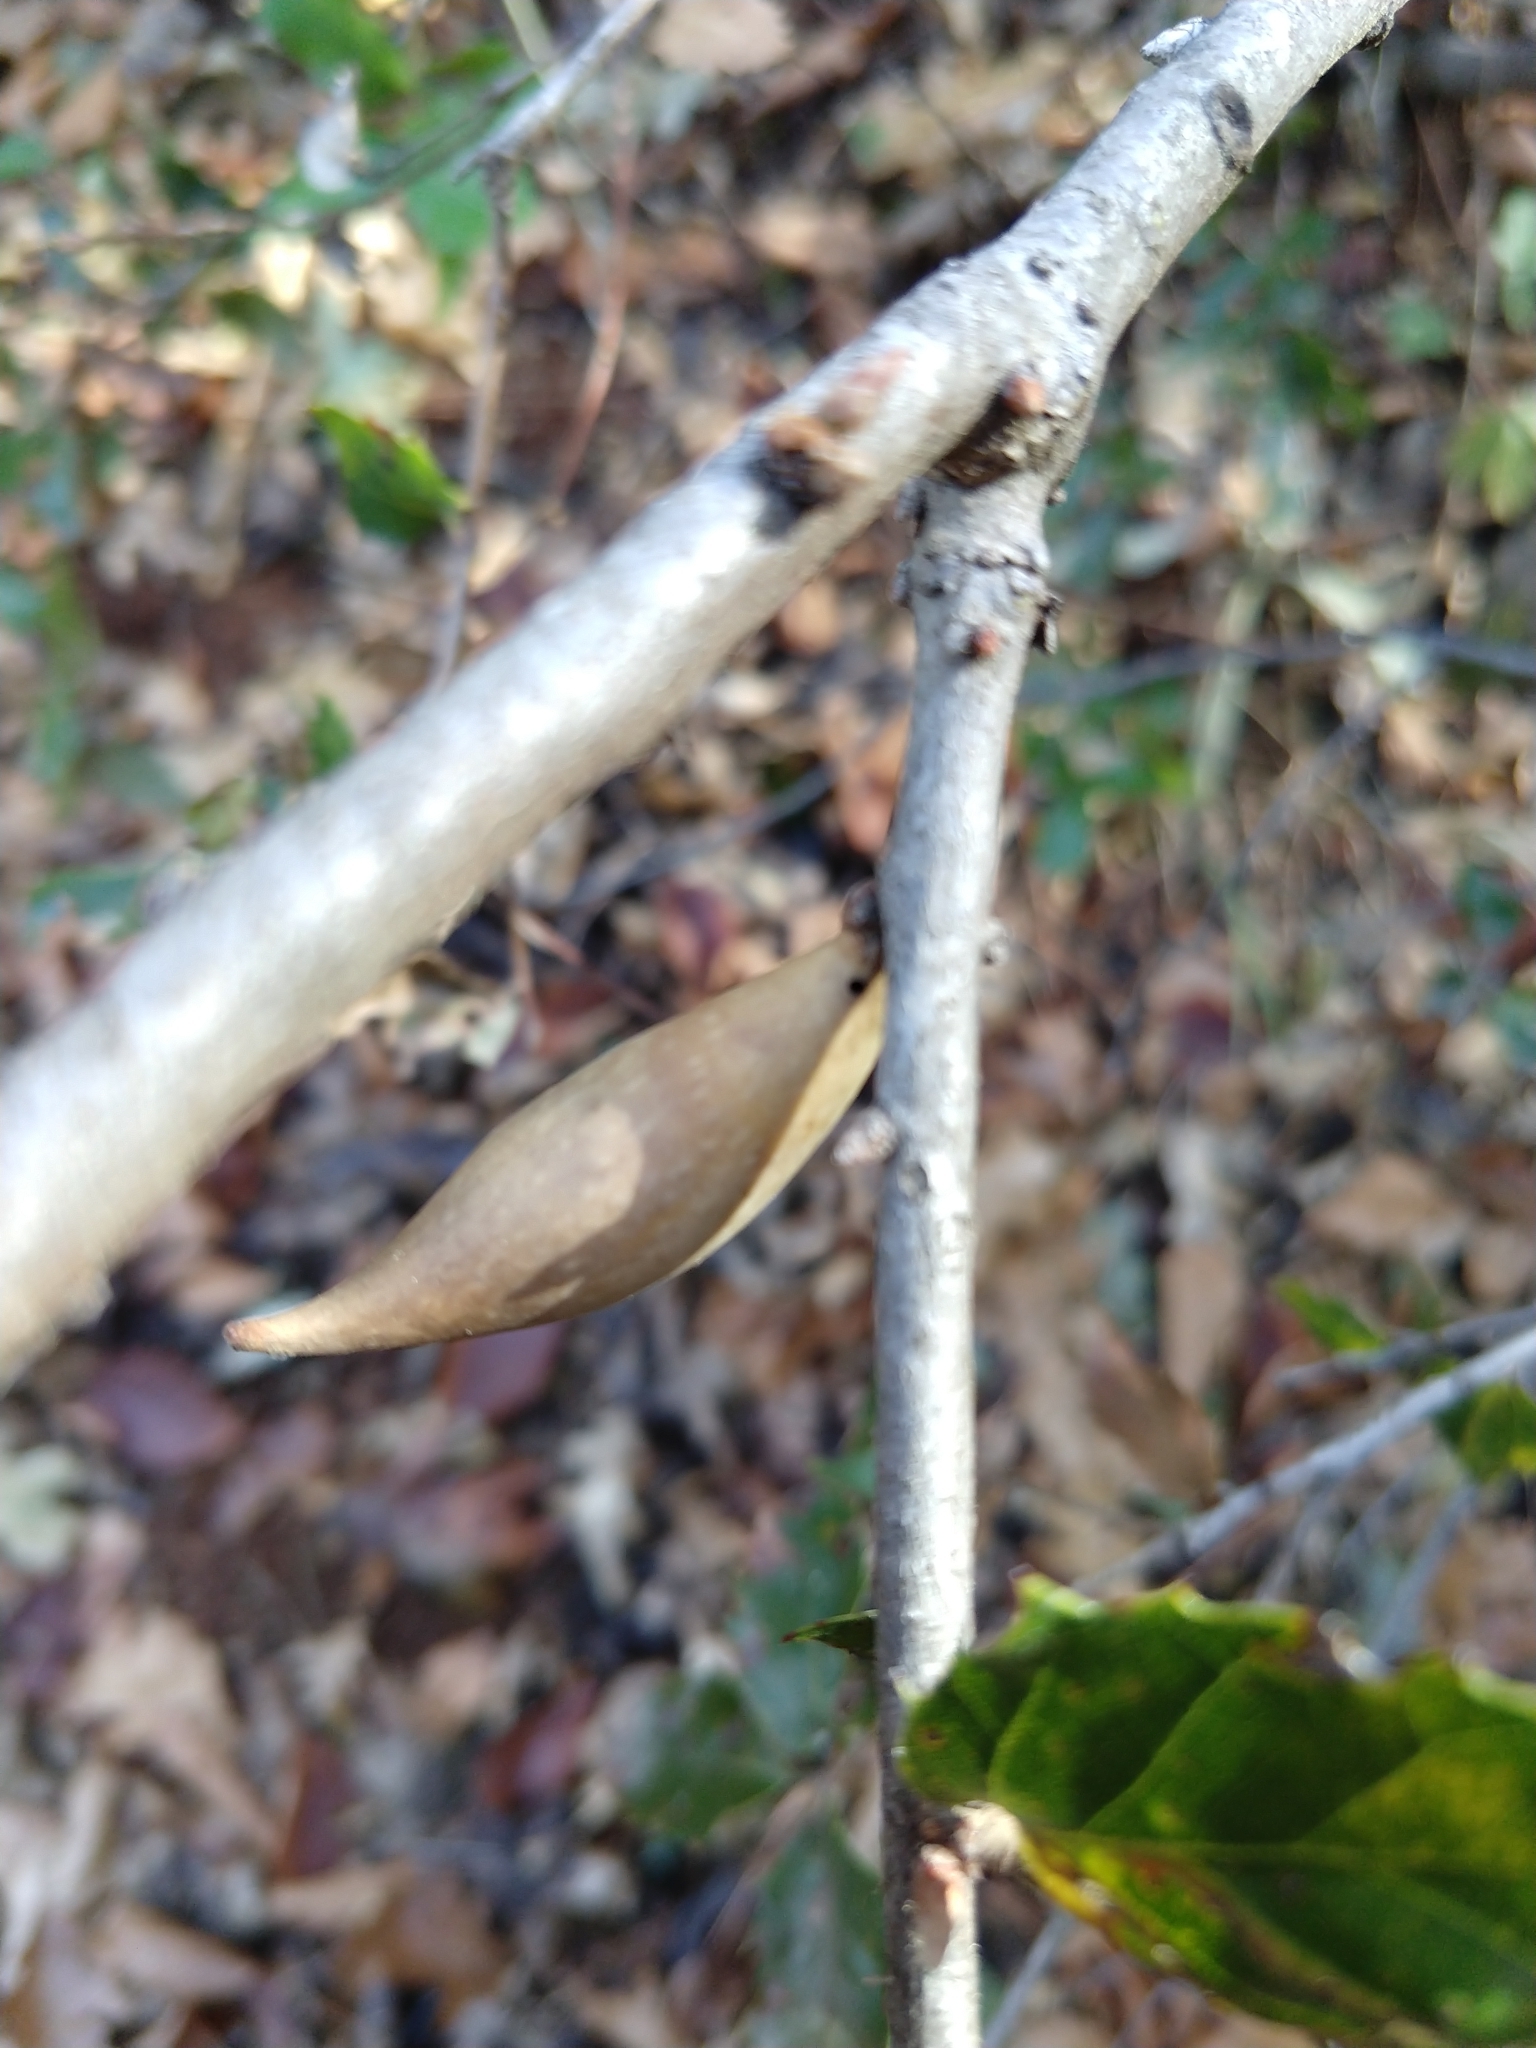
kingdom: Animalia
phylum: Arthropoda
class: Insecta
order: Hymenoptera
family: Cynipidae
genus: Heteroecus
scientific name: Heteroecus pacificus
